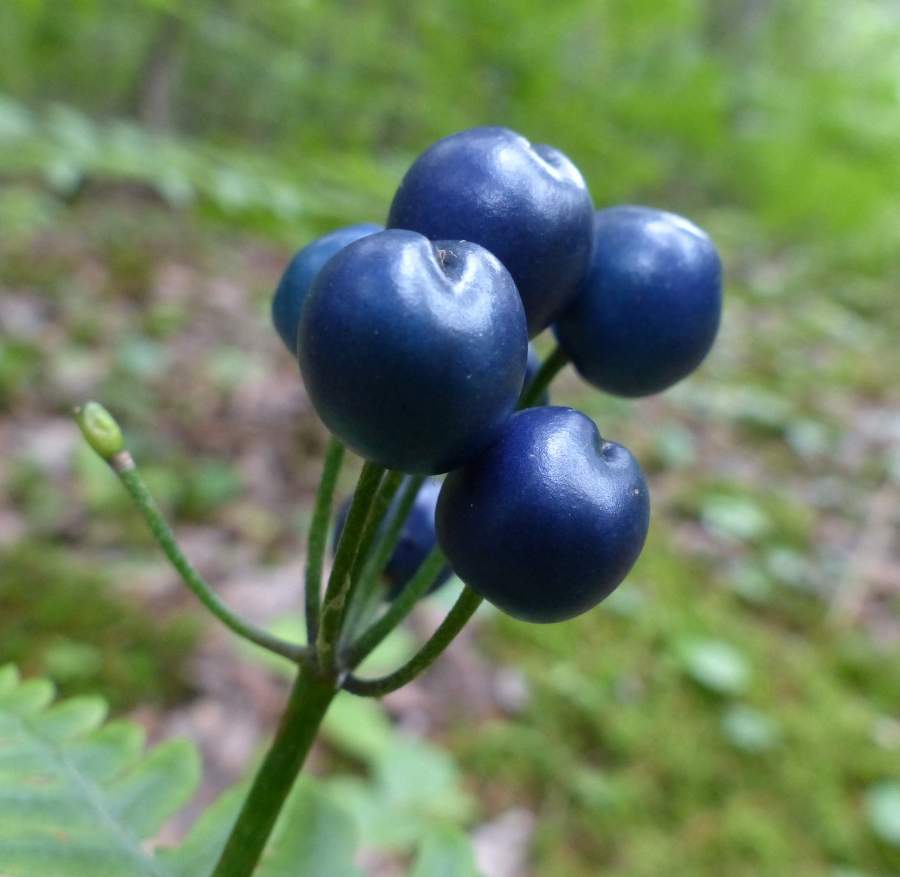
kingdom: Plantae
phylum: Tracheophyta
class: Liliopsida
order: Liliales
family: Liliaceae
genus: Clintonia
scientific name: Clintonia borealis
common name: Yellow clintonia
